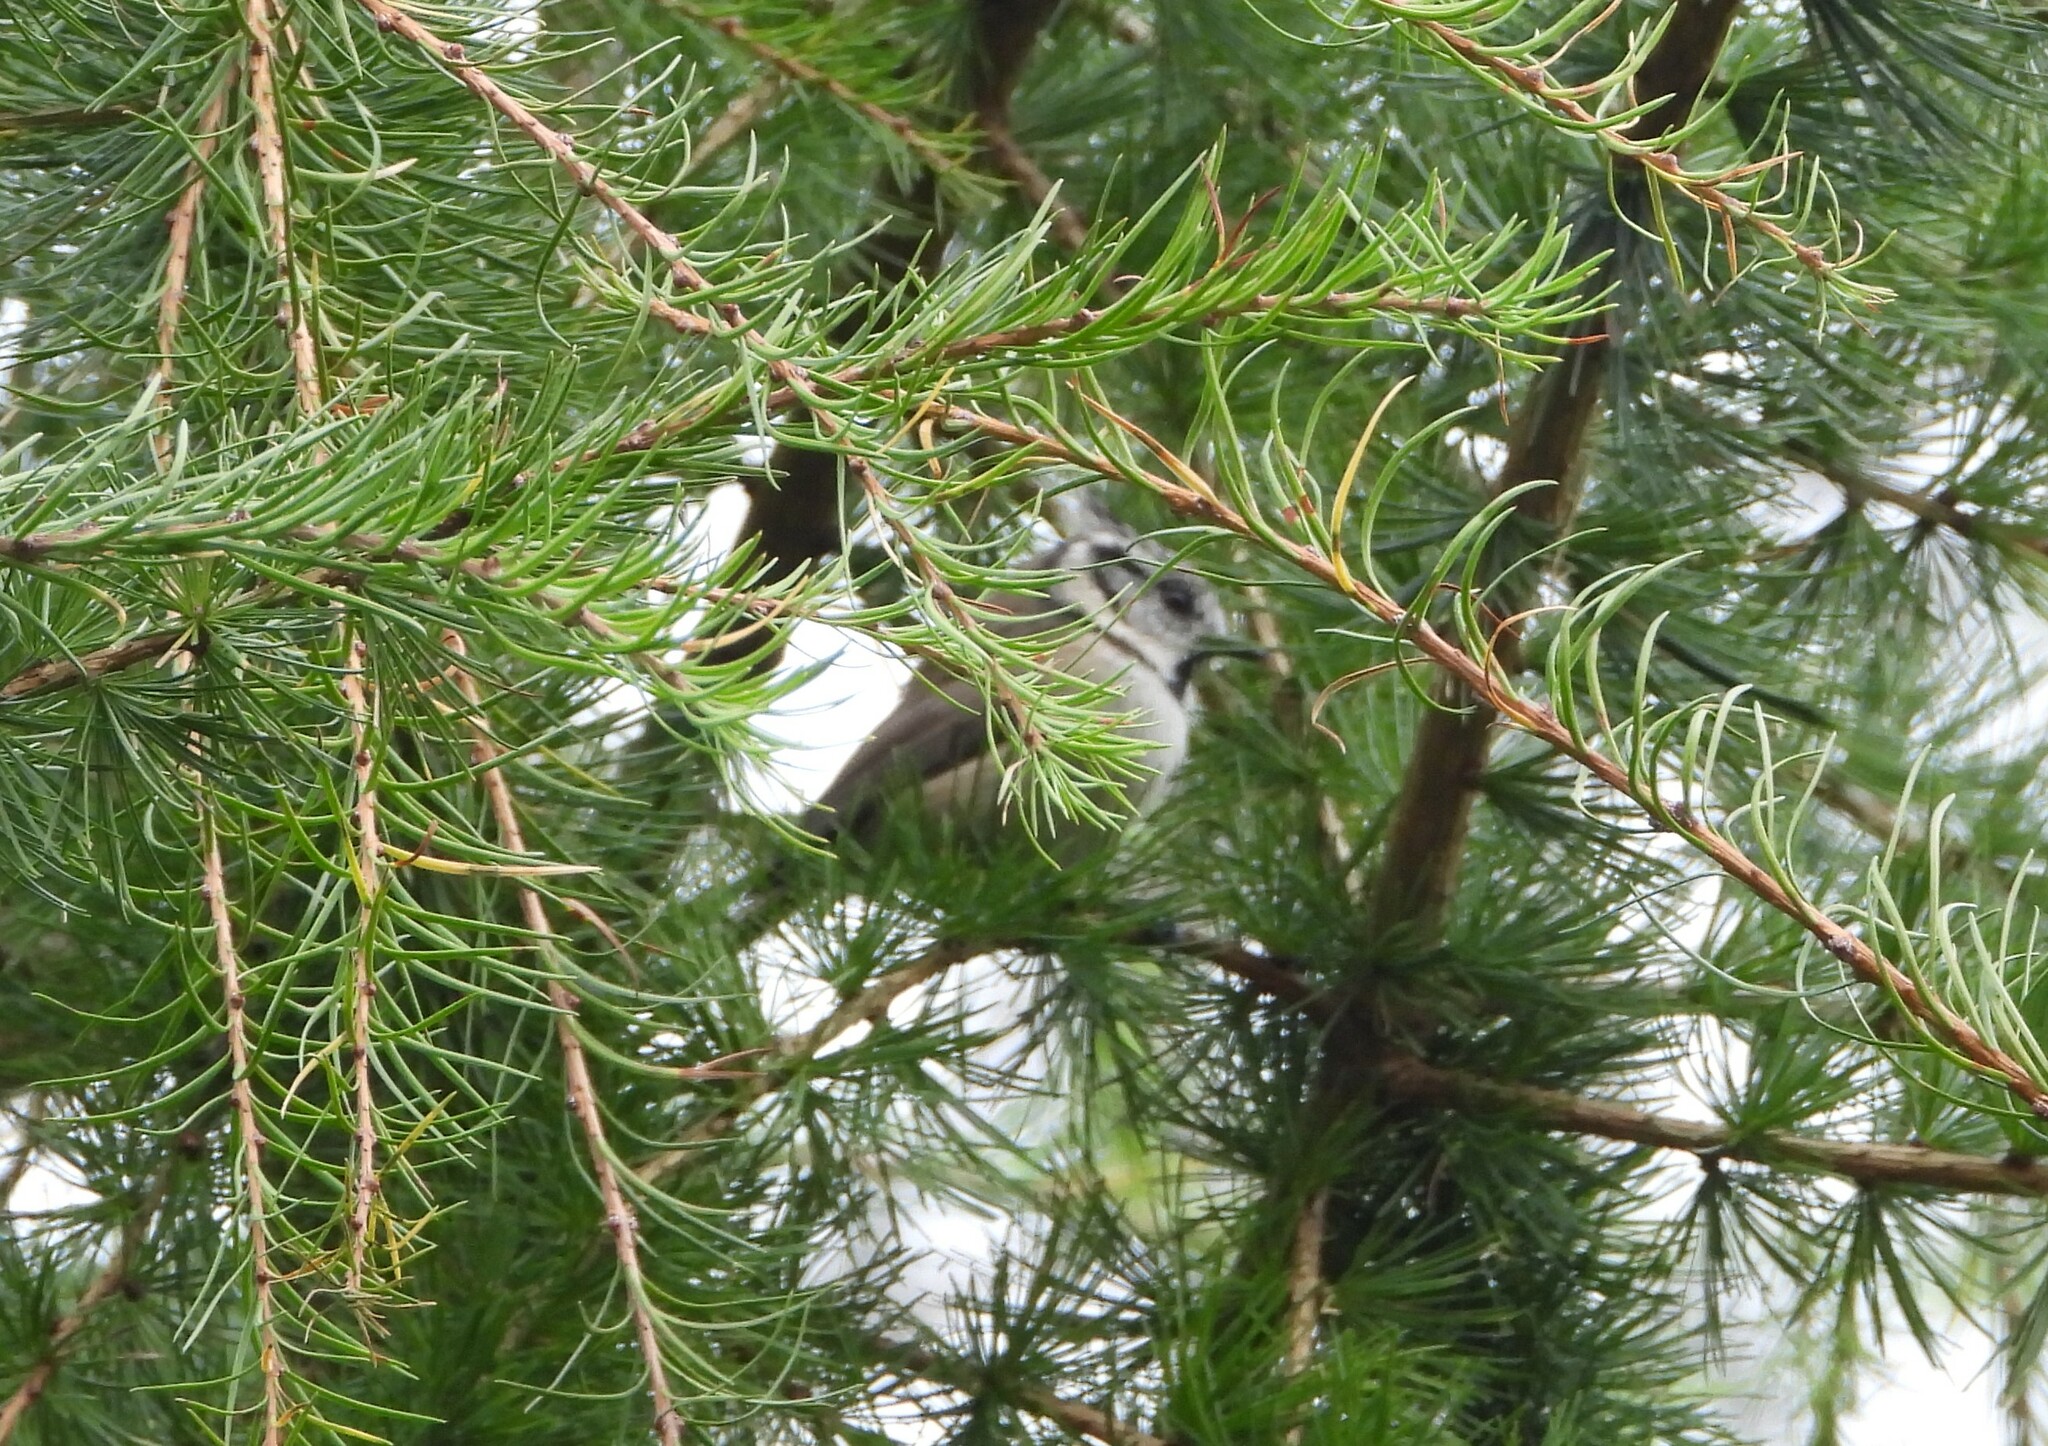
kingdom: Animalia
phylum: Chordata
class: Aves
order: Passeriformes
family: Paridae
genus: Lophophanes
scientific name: Lophophanes cristatus
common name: European crested tit
